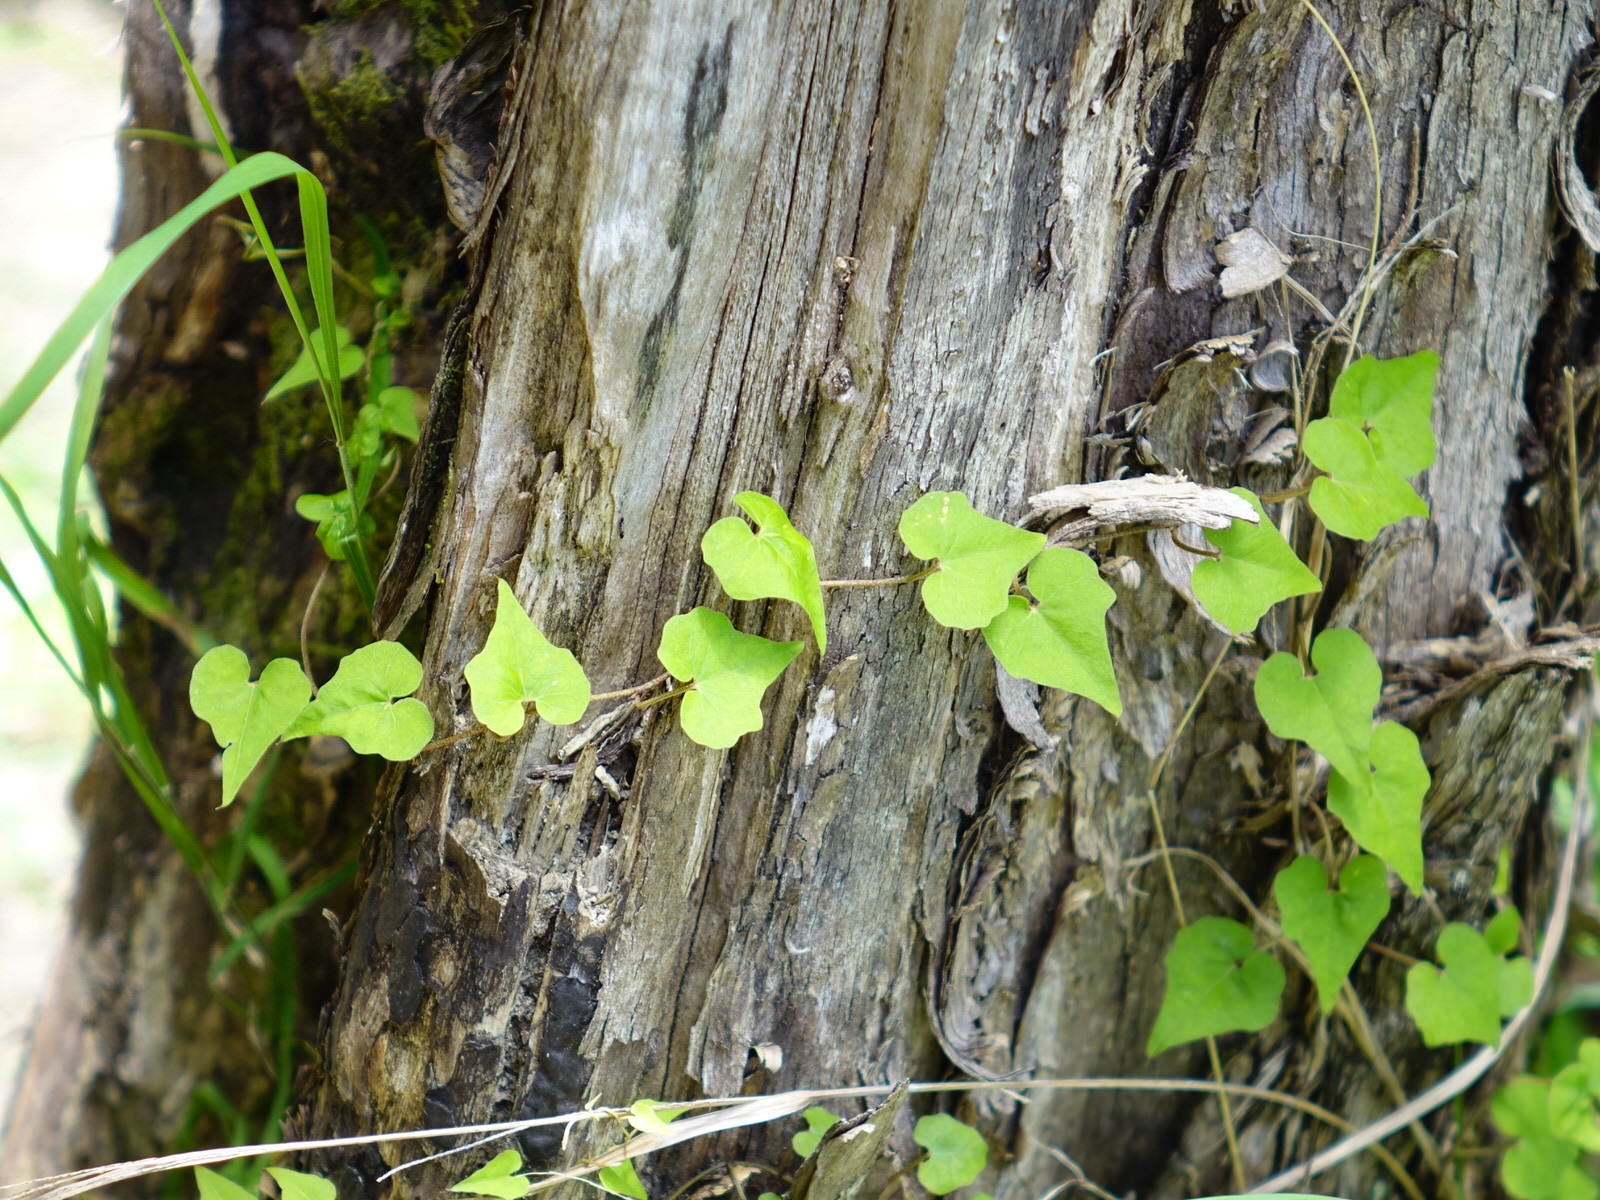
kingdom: Plantae
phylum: Tracheophyta
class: Magnoliopsida
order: Solanales
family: Convolvulaceae
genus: Calystegia
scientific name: Calystegia tuguriorum
